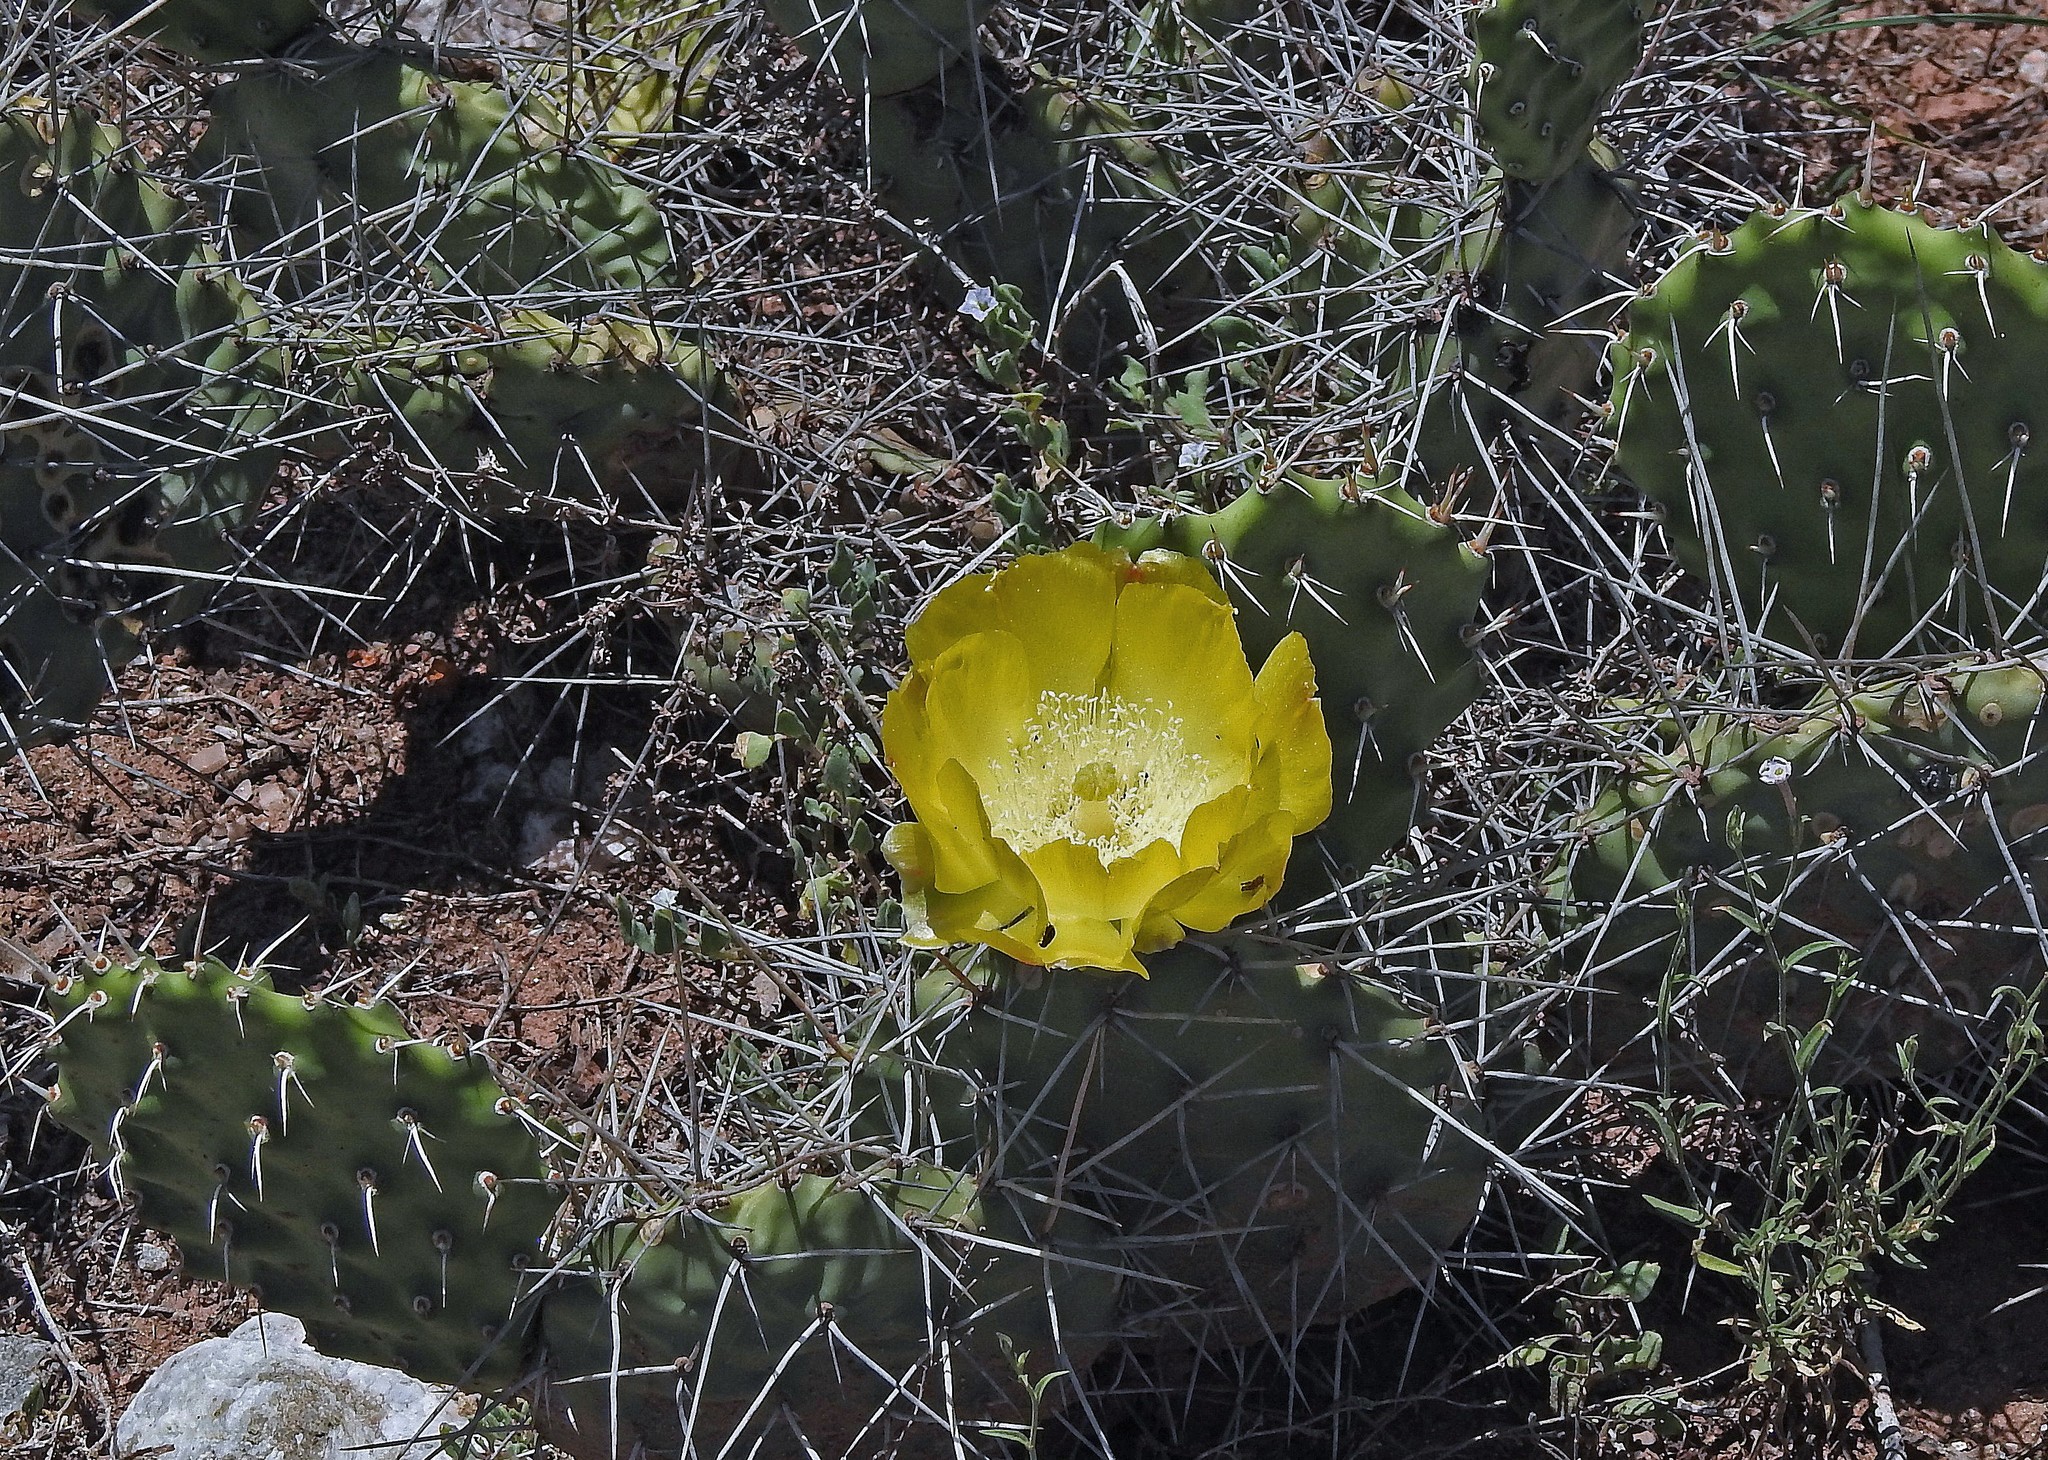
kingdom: Plantae
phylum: Tracheophyta
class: Magnoliopsida
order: Caryophyllales
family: Cactaceae
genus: Opuntia
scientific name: Opuntia sulphurea
